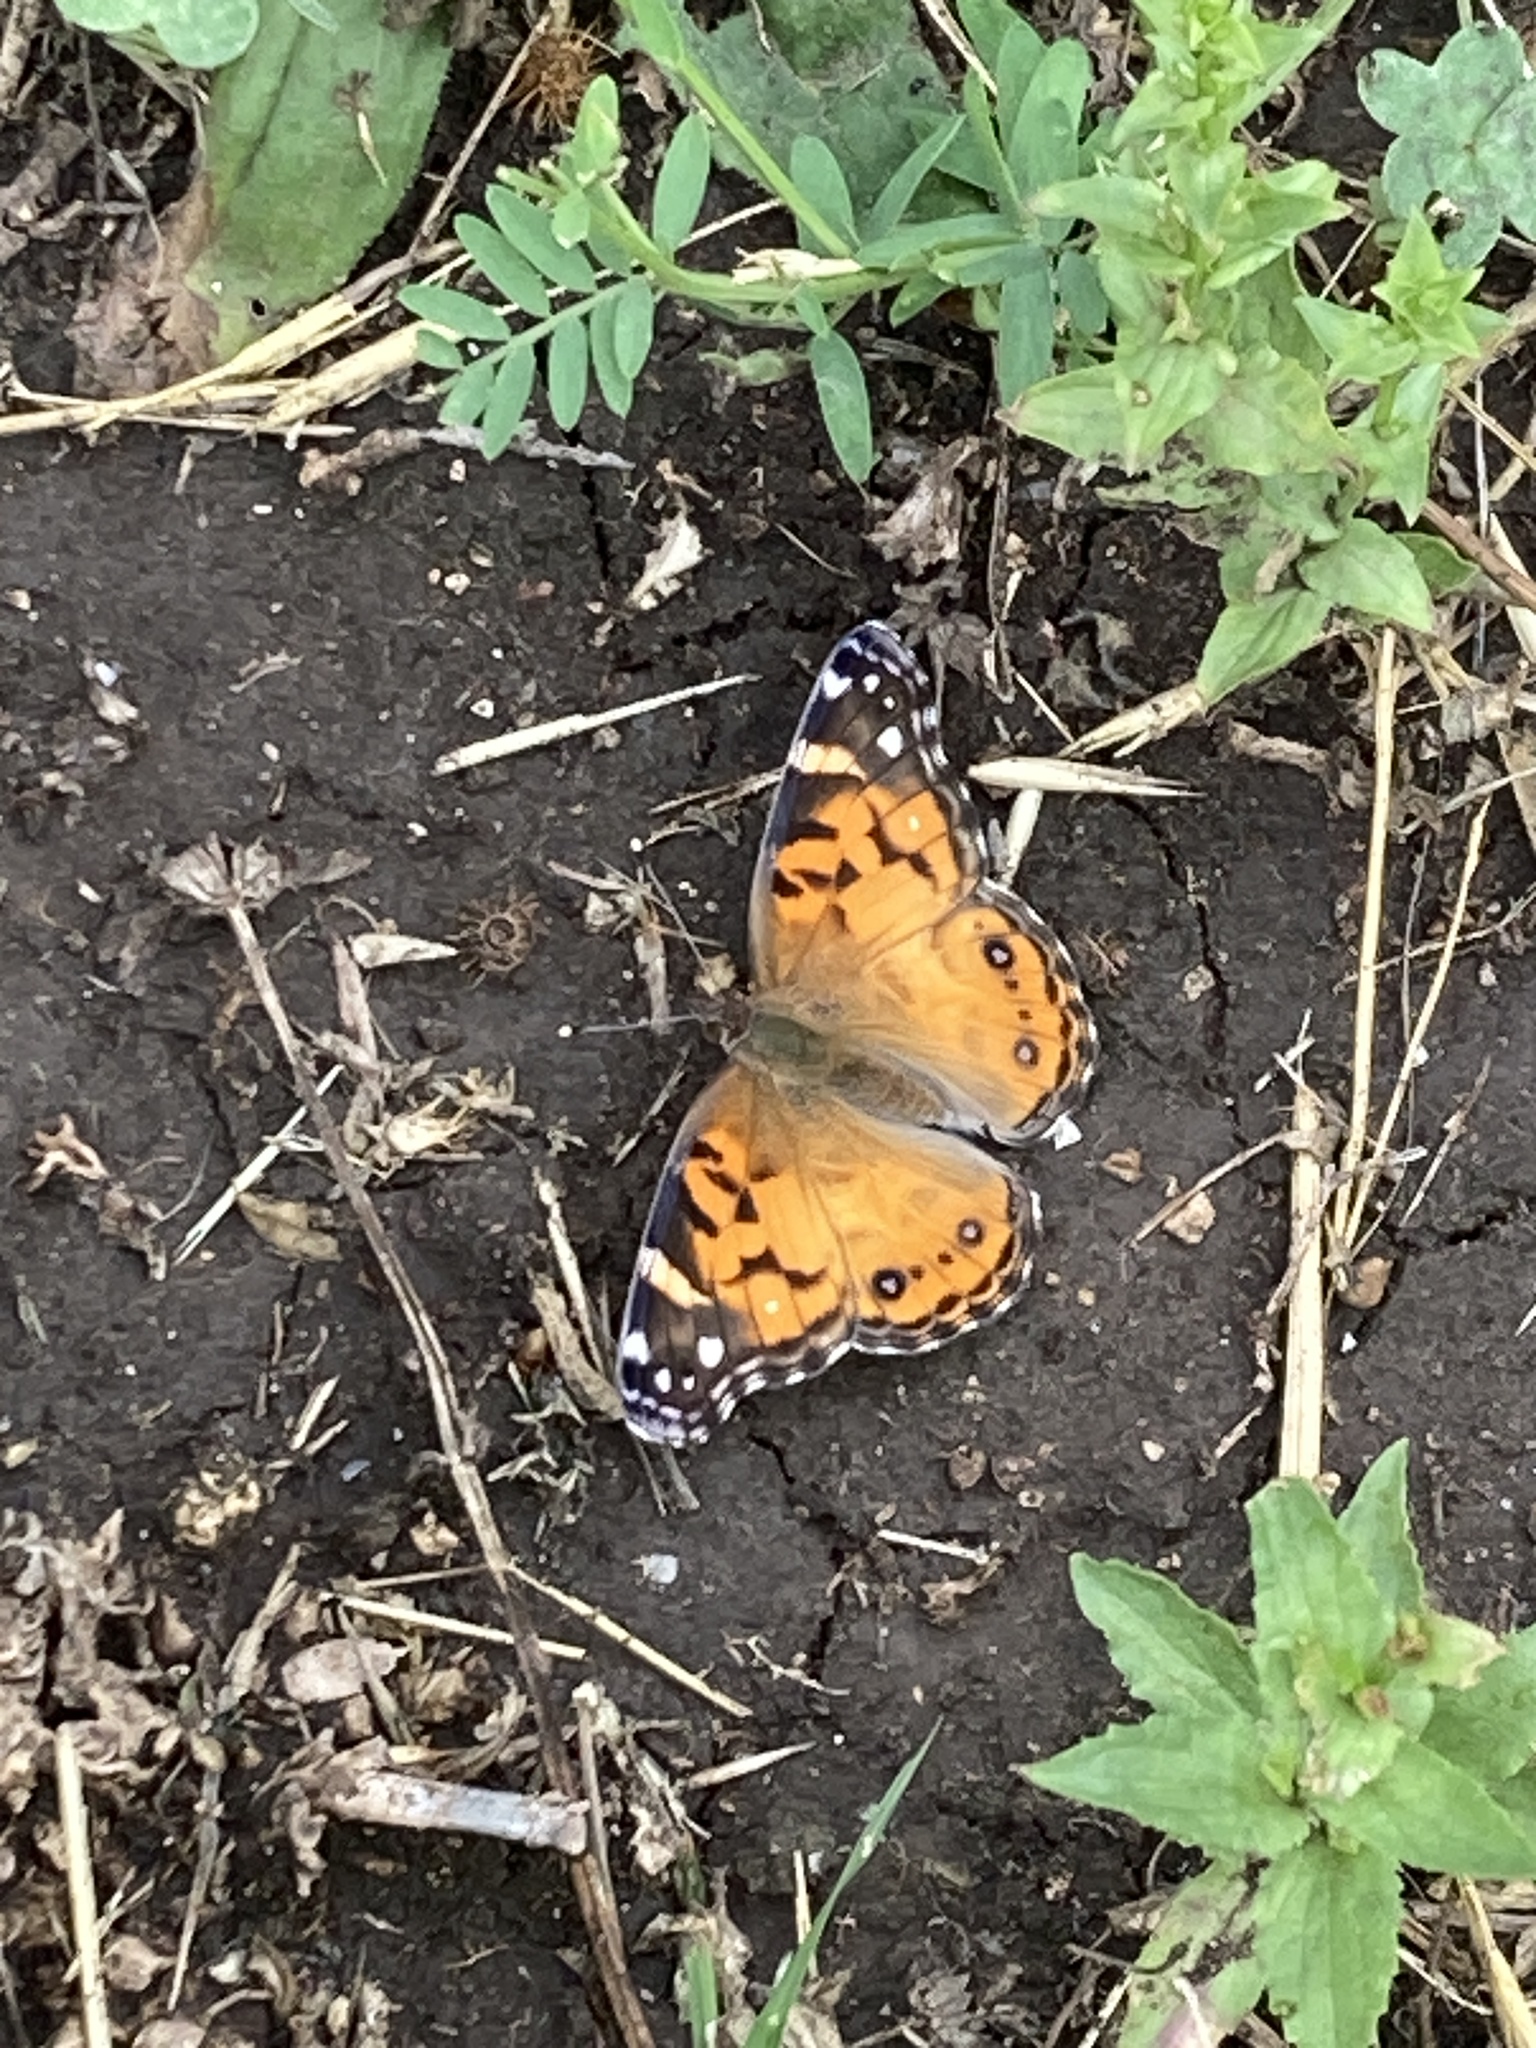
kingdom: Animalia
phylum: Arthropoda
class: Insecta
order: Lepidoptera
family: Nymphalidae
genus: Vanessa
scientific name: Vanessa virginiensis
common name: American lady
